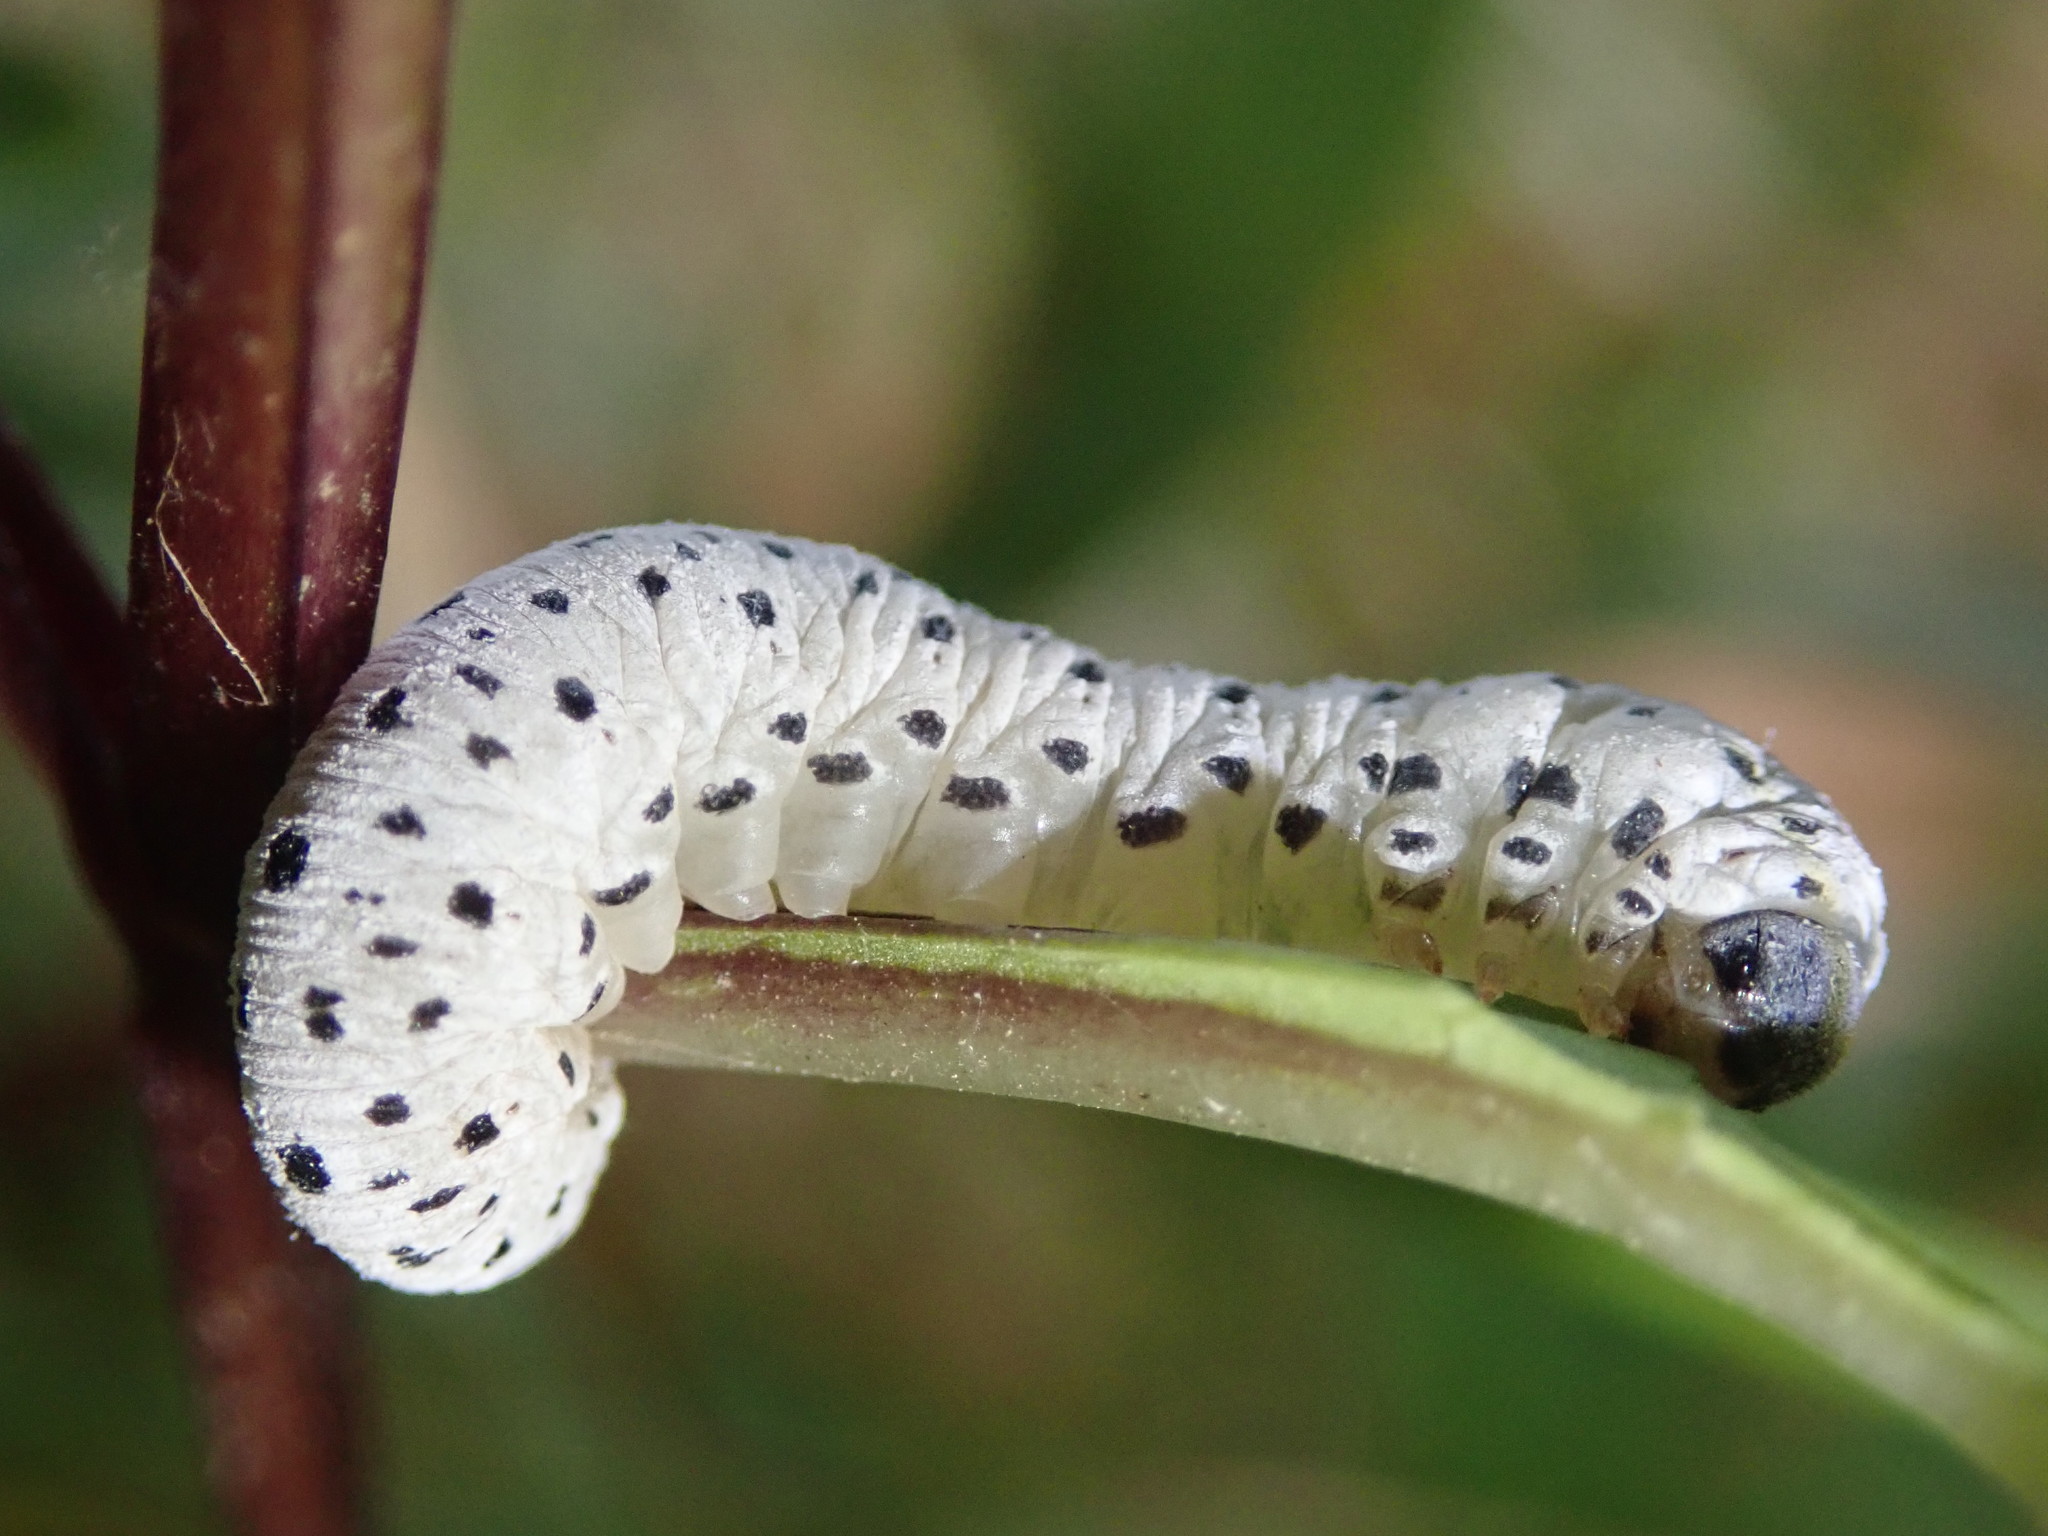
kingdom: Animalia
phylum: Arthropoda
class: Insecta
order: Hymenoptera
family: Tenthredinidae
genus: Tenthredo
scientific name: Tenthredo scrophulariae
